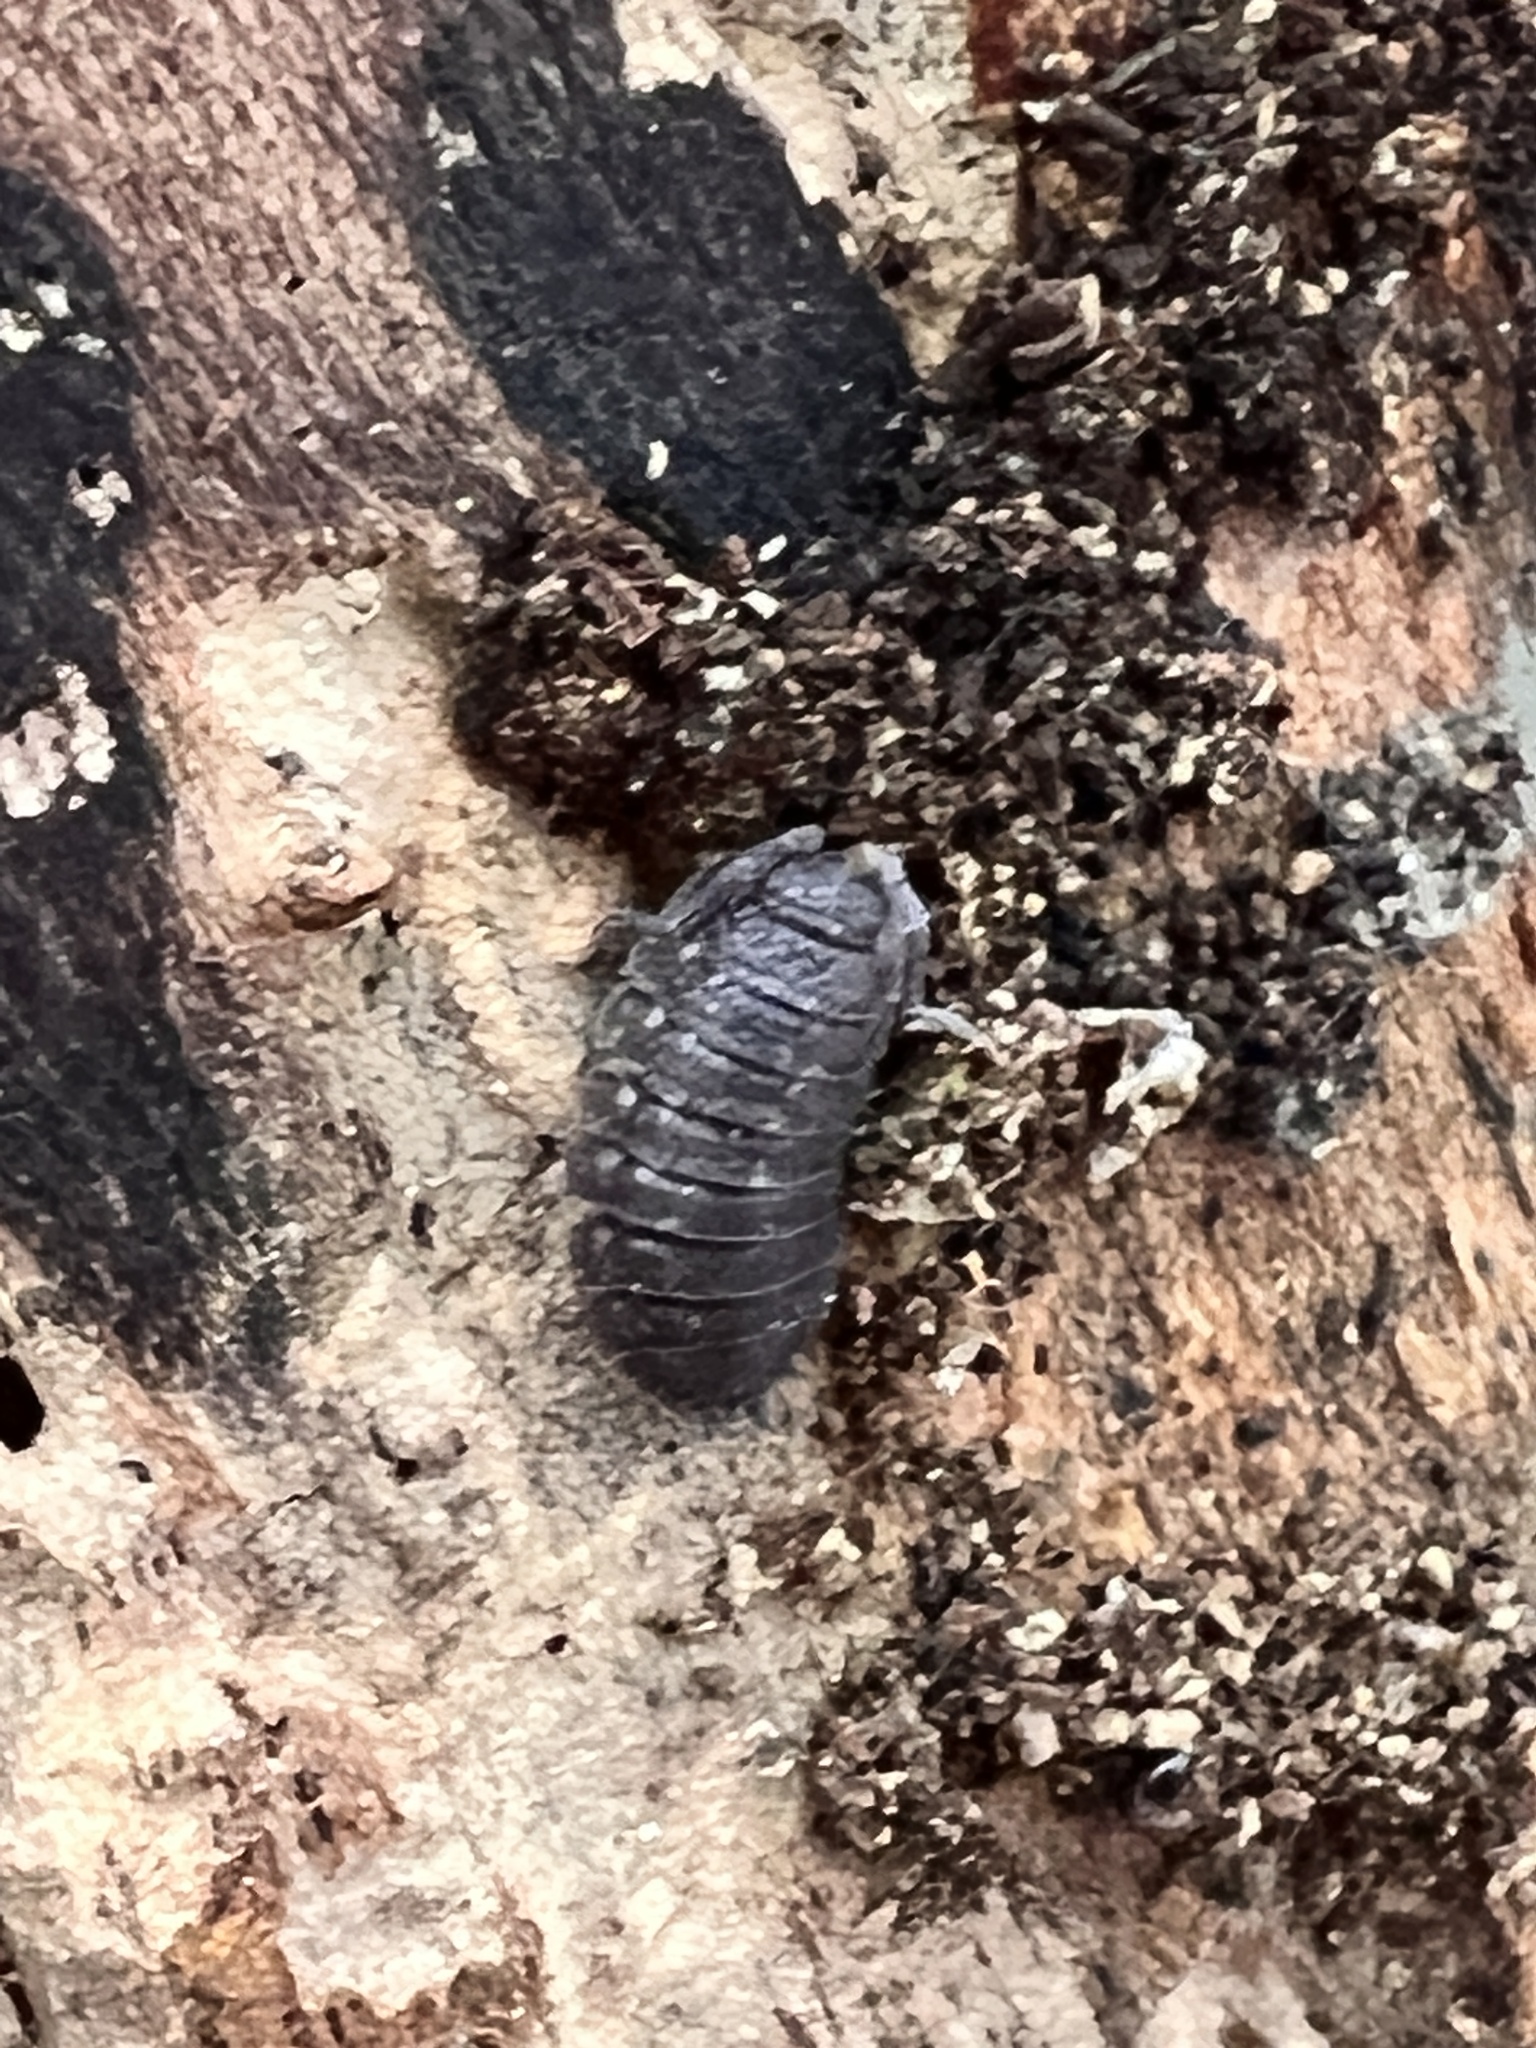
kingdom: Animalia
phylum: Arthropoda
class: Malacostraca
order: Isopoda
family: Porcellionidae
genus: Porcellio
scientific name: Porcellio scaber
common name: Common rough woodlouse
